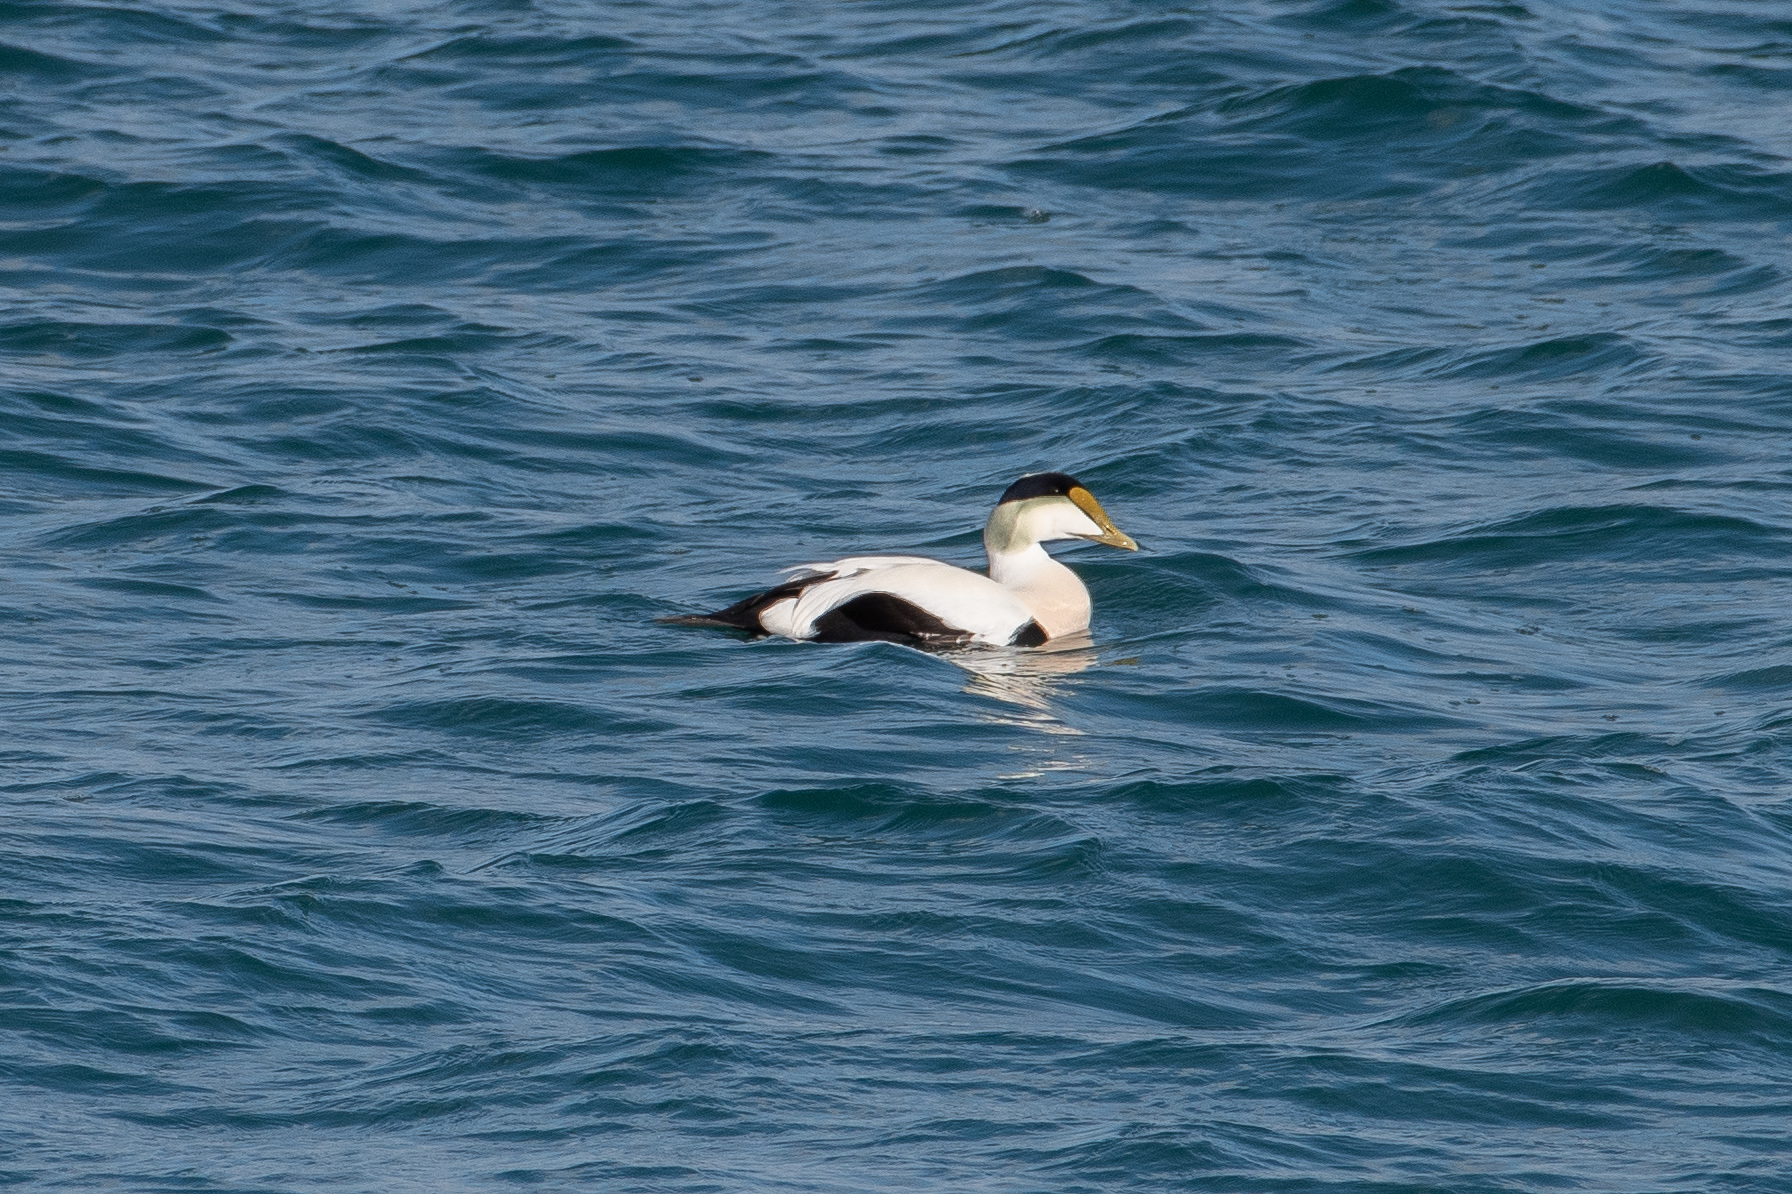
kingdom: Animalia
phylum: Chordata
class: Aves
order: Anseriformes
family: Anatidae
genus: Somateria
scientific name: Somateria mollissima
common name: Common eider
